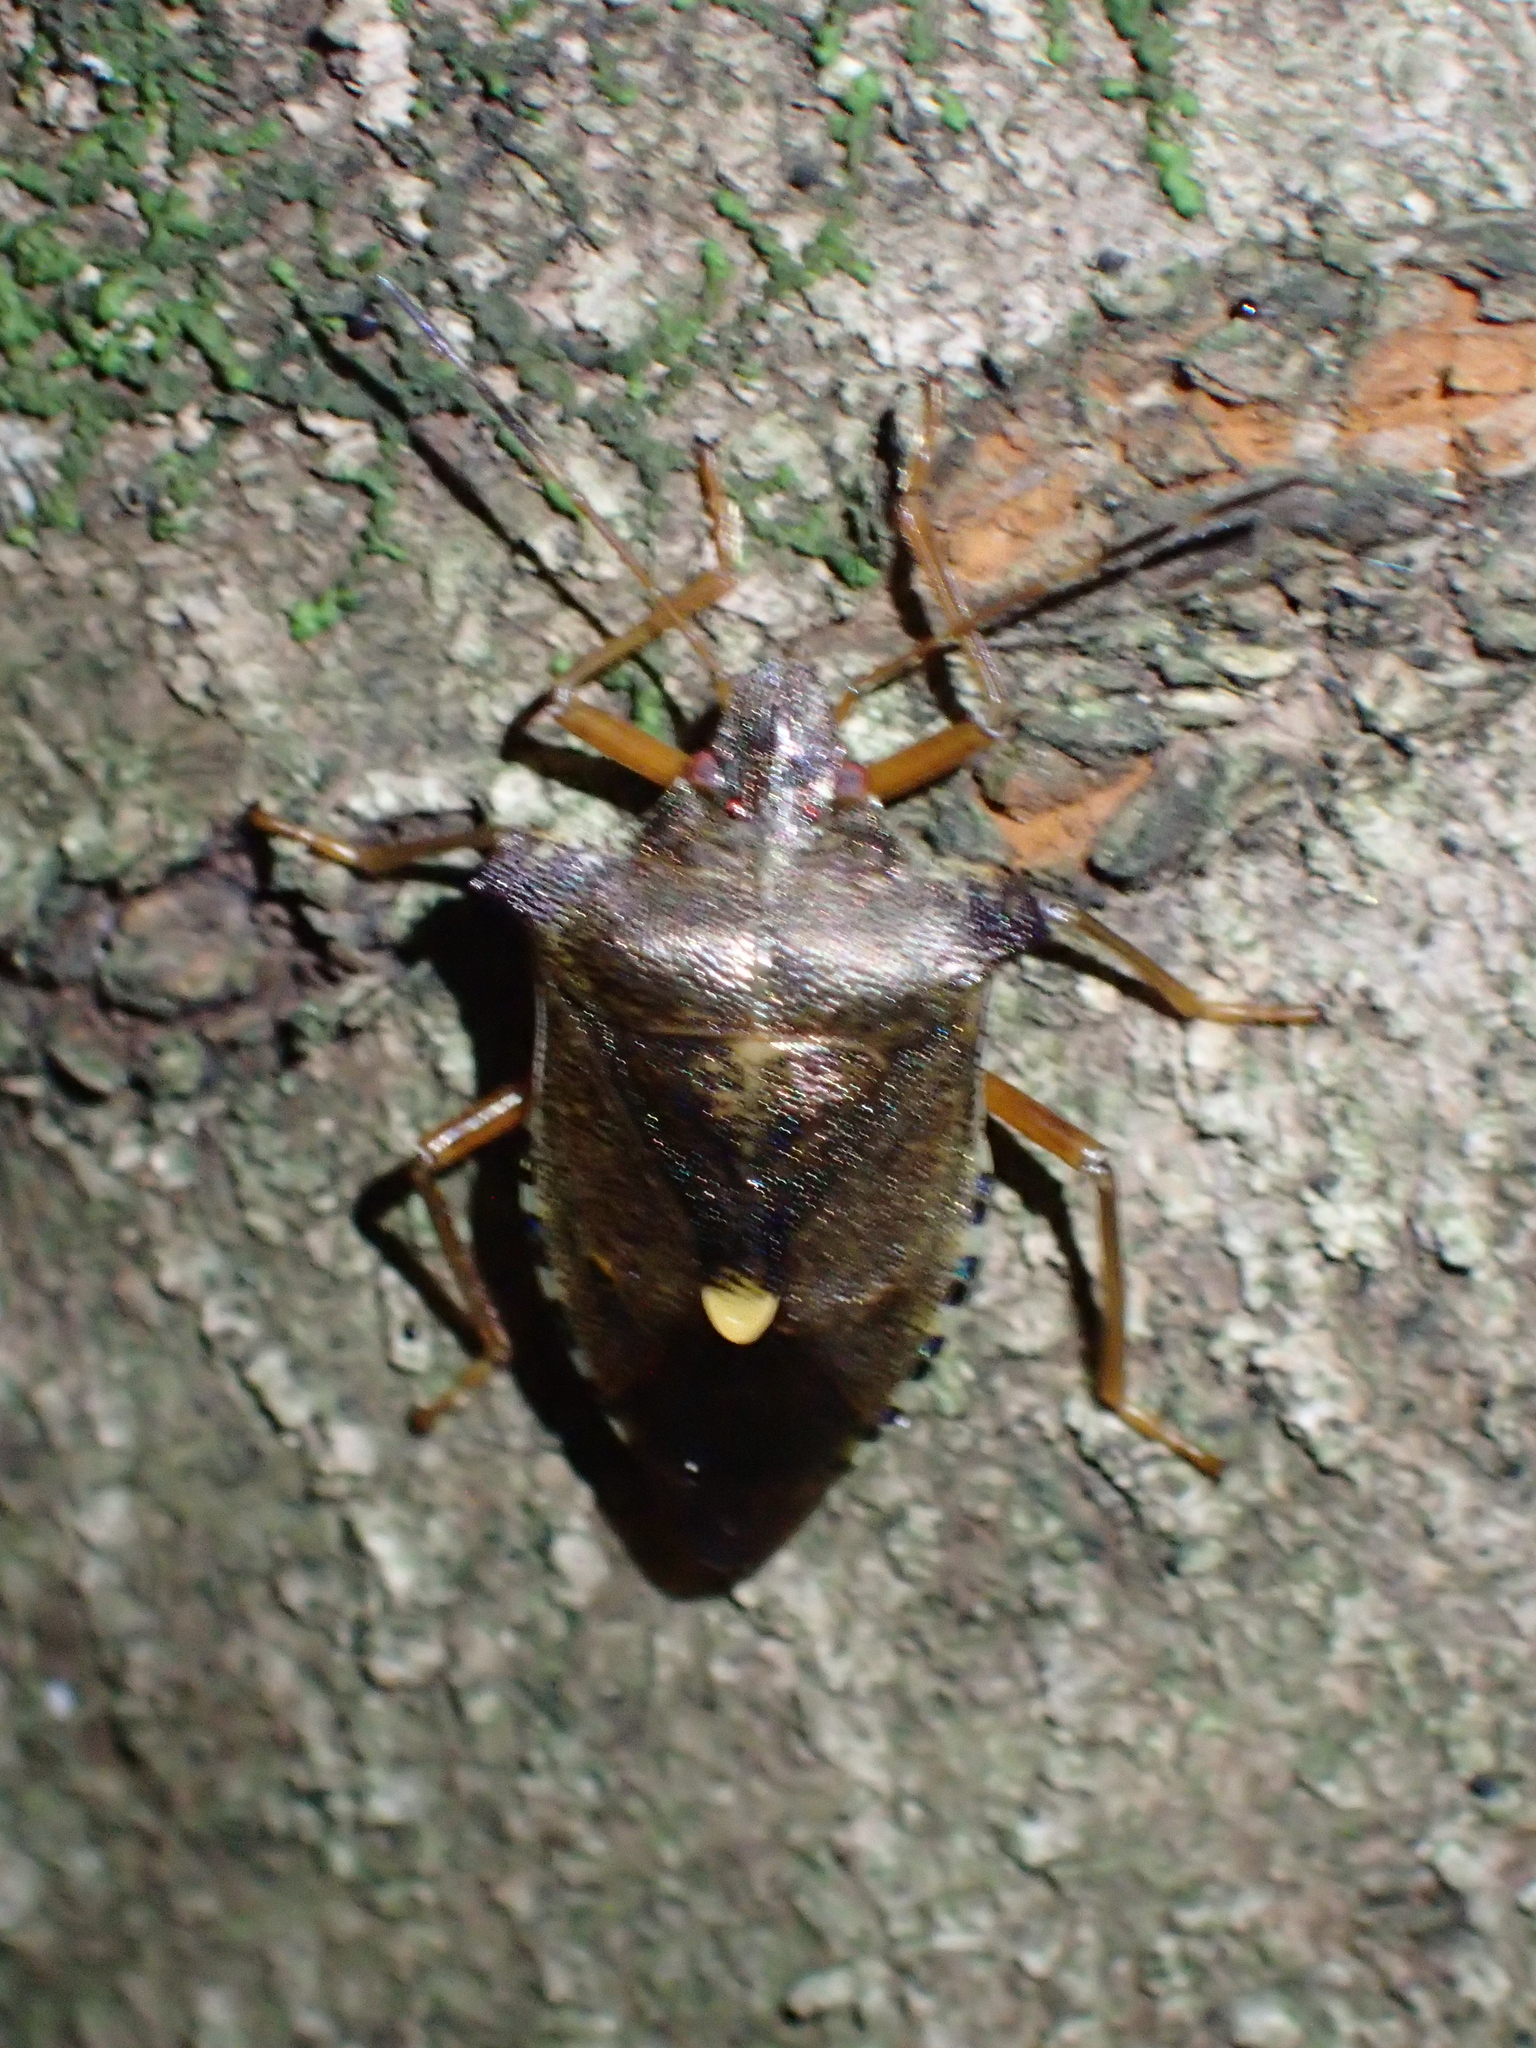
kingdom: Animalia
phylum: Arthropoda
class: Insecta
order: Hemiptera
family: Pentatomidae
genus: Pentatoma
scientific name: Pentatoma rufipes
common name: Forest bug
